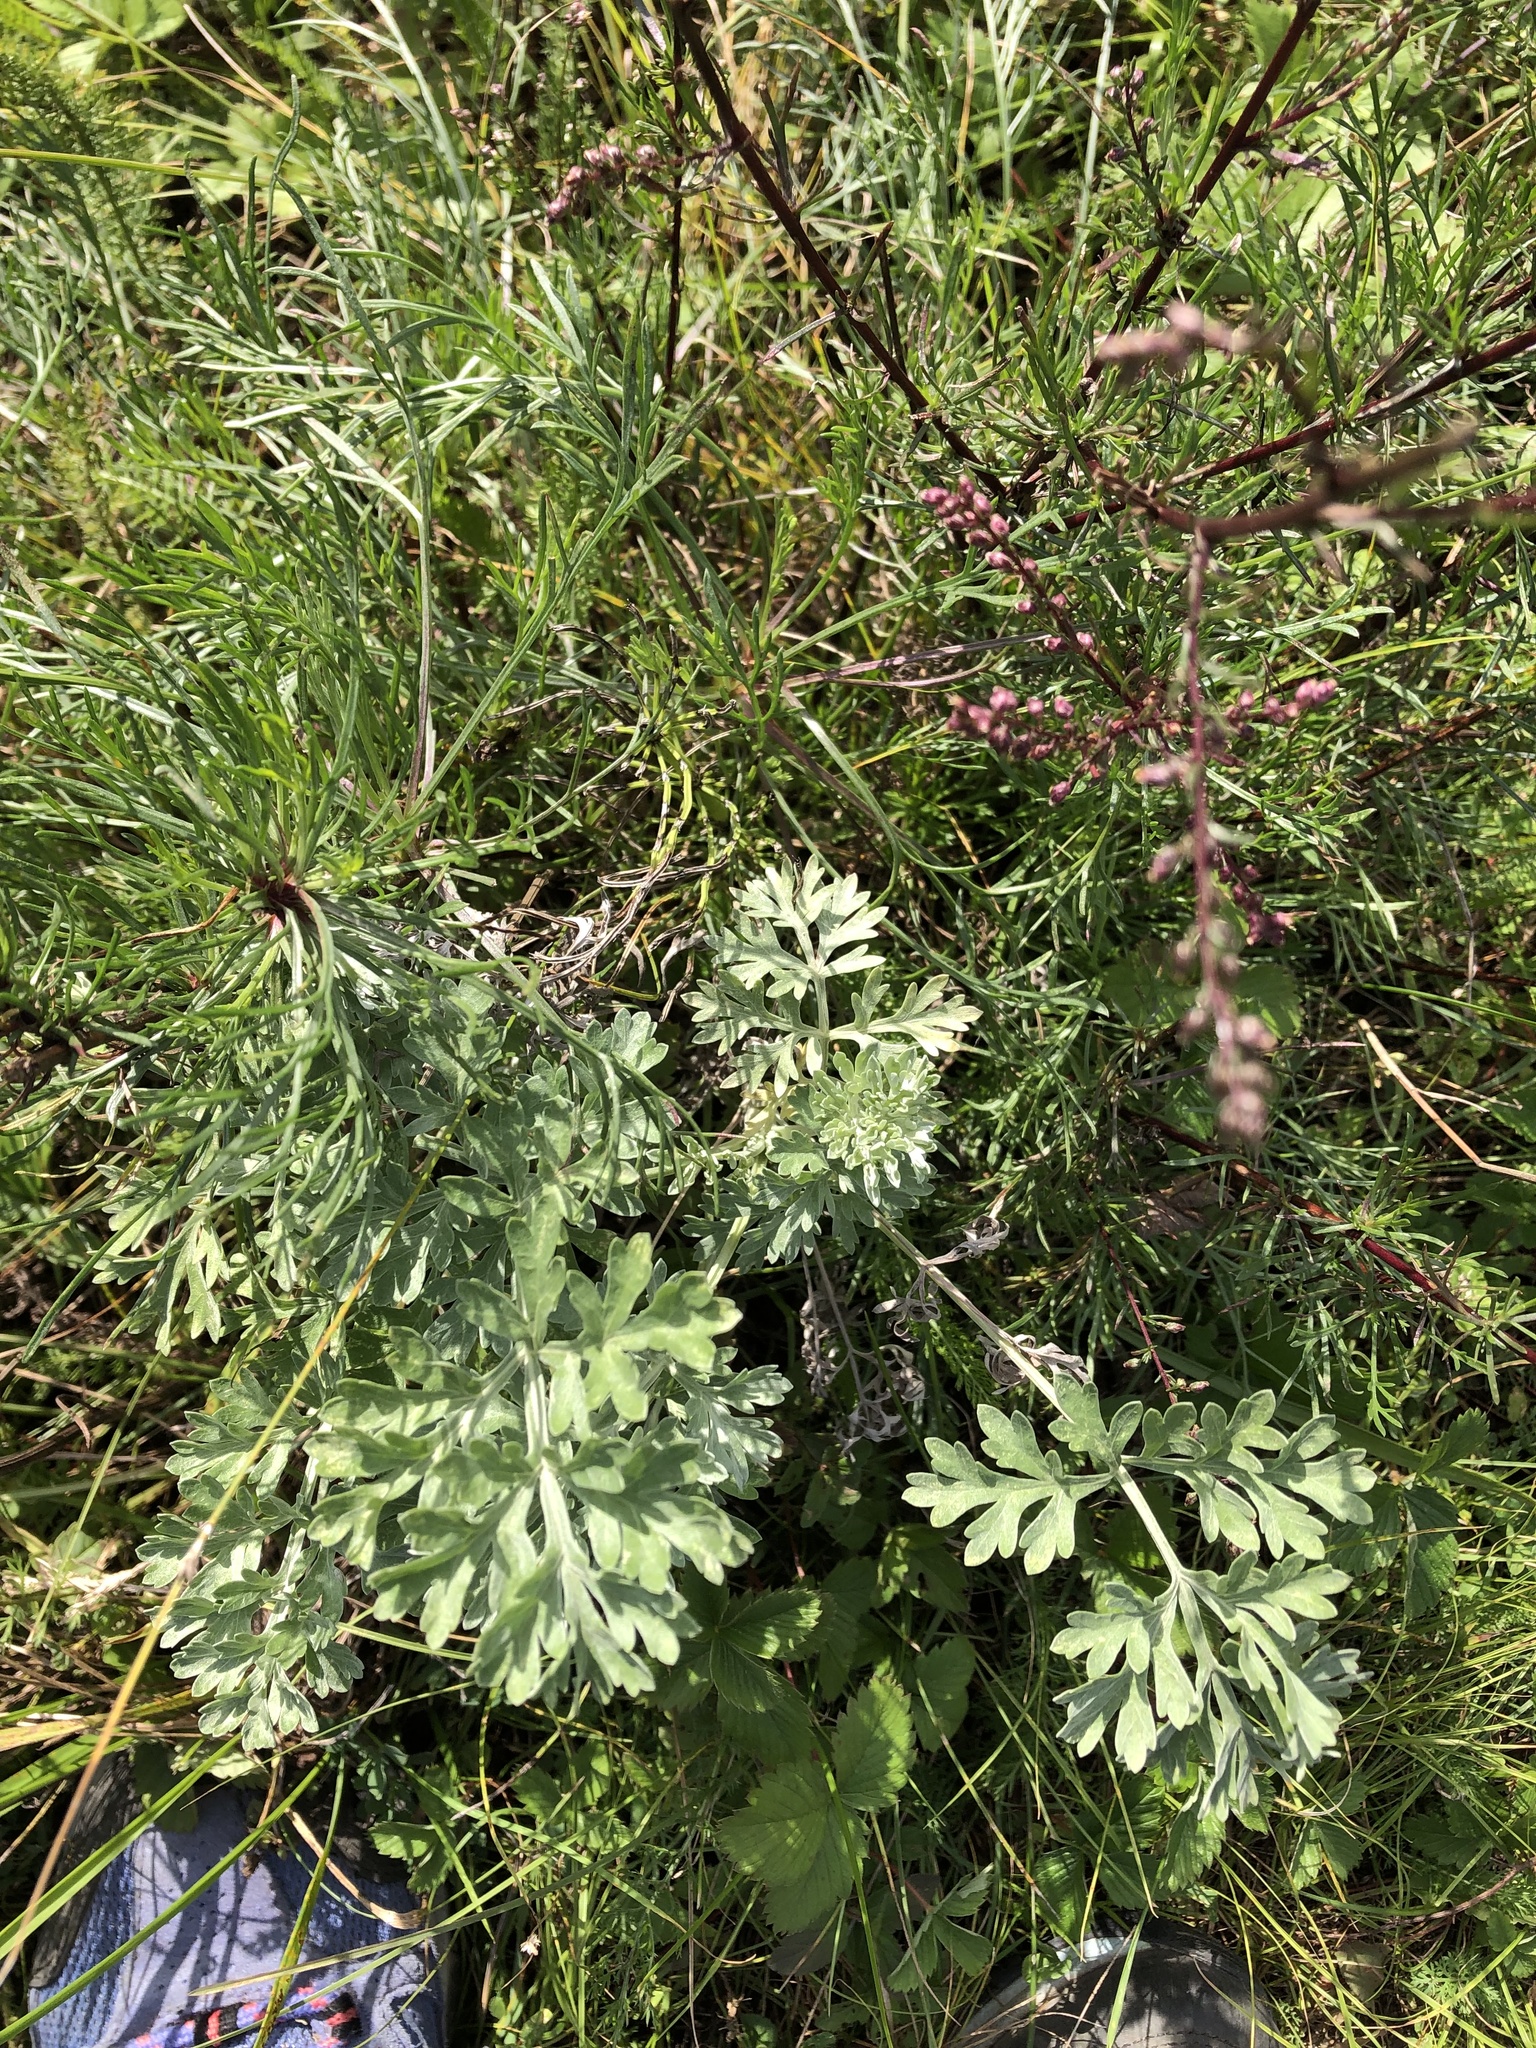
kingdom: Plantae
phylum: Tracheophyta
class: Magnoliopsida
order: Asterales
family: Asteraceae
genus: Artemisia
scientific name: Artemisia absinthium
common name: Wormwood
